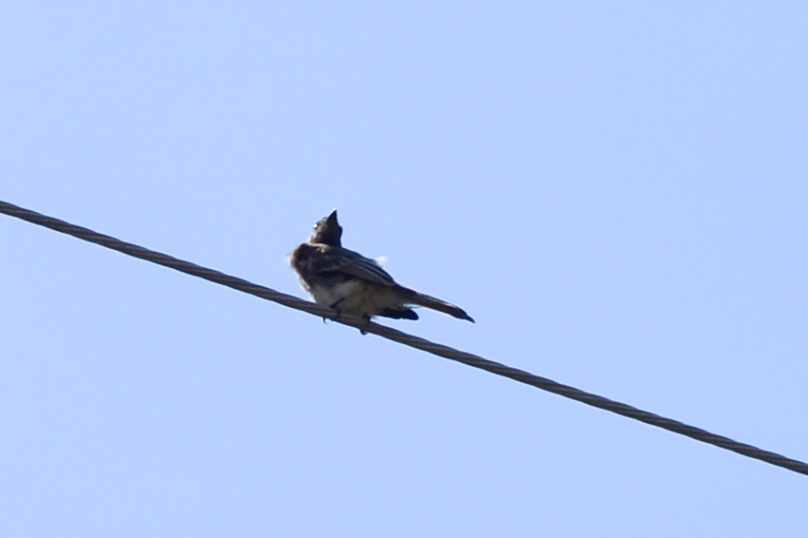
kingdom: Animalia
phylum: Chordata
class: Aves
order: Passeriformes
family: Corvidae
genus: Aphelocoma
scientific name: Aphelocoma californica
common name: California scrub-jay
